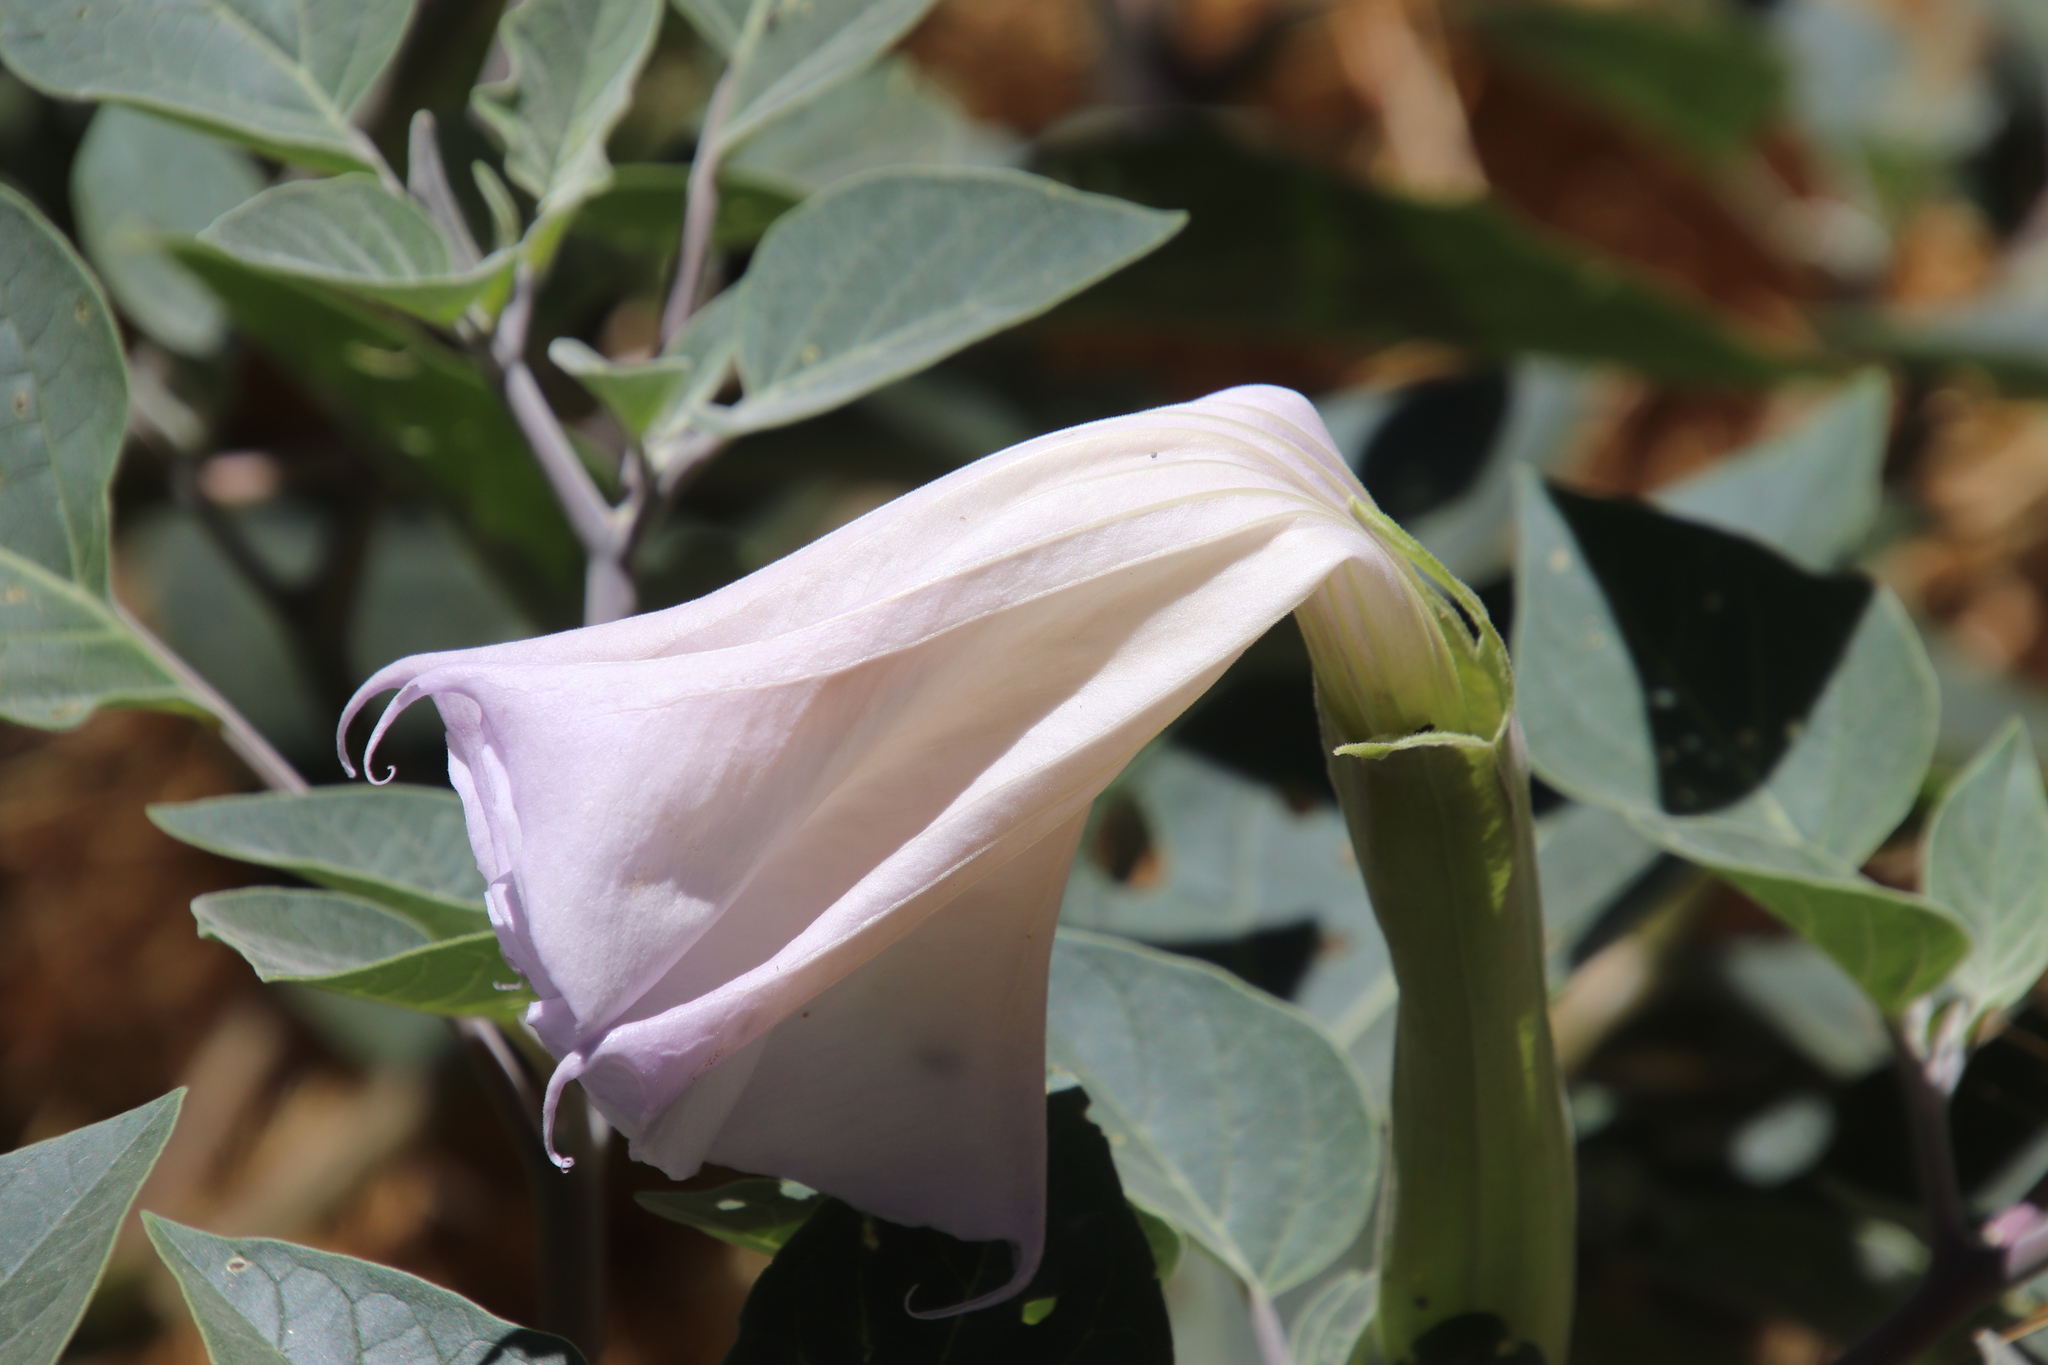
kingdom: Plantae
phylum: Tracheophyta
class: Magnoliopsida
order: Solanales
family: Solanaceae
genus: Datura
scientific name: Datura wrightii
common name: Sacred thorn-apple
